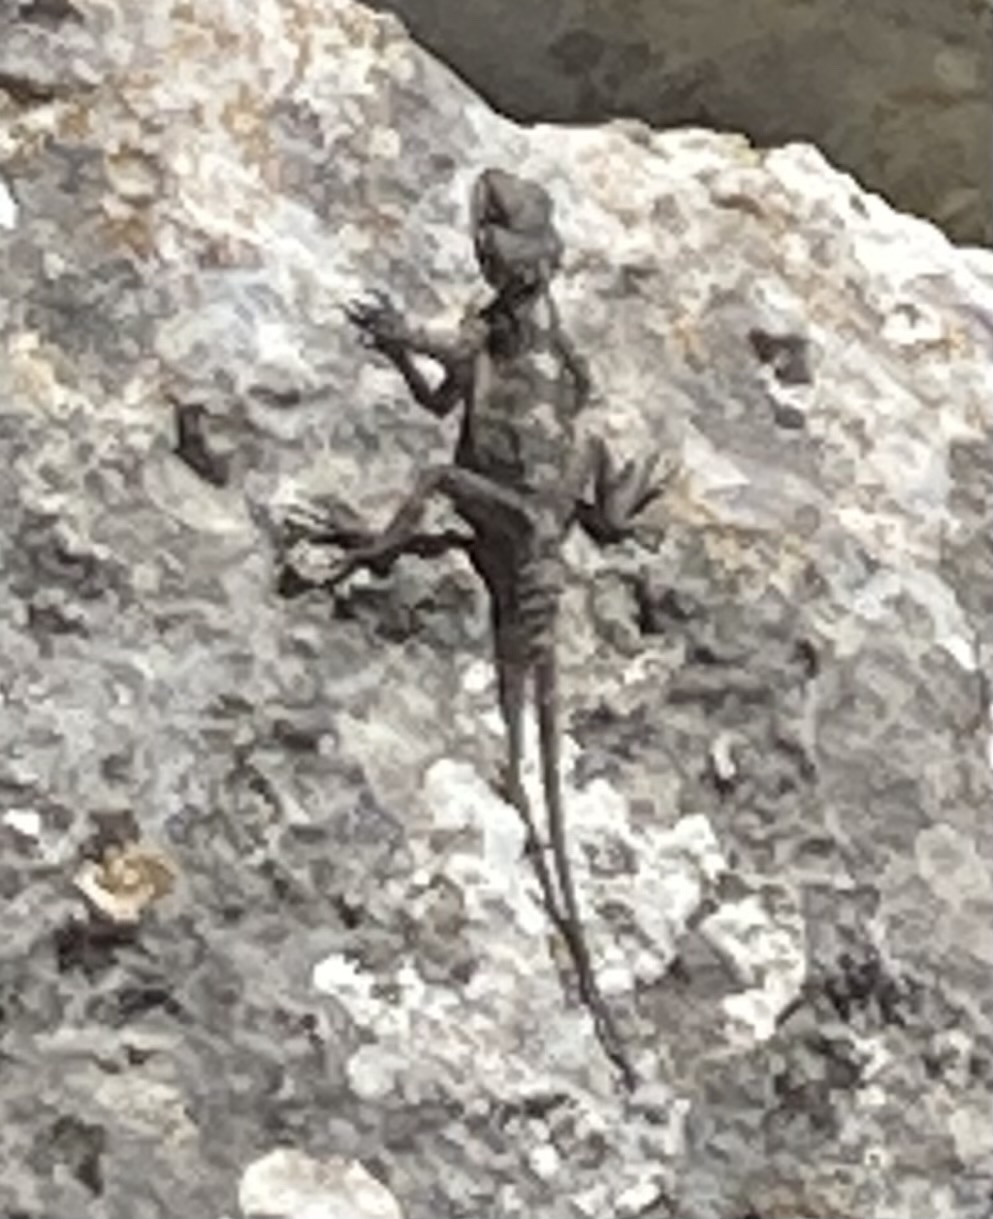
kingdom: Animalia
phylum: Chordata
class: Squamata
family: Agamidae
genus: Stellagama
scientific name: Stellagama stellio
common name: Starred agama
